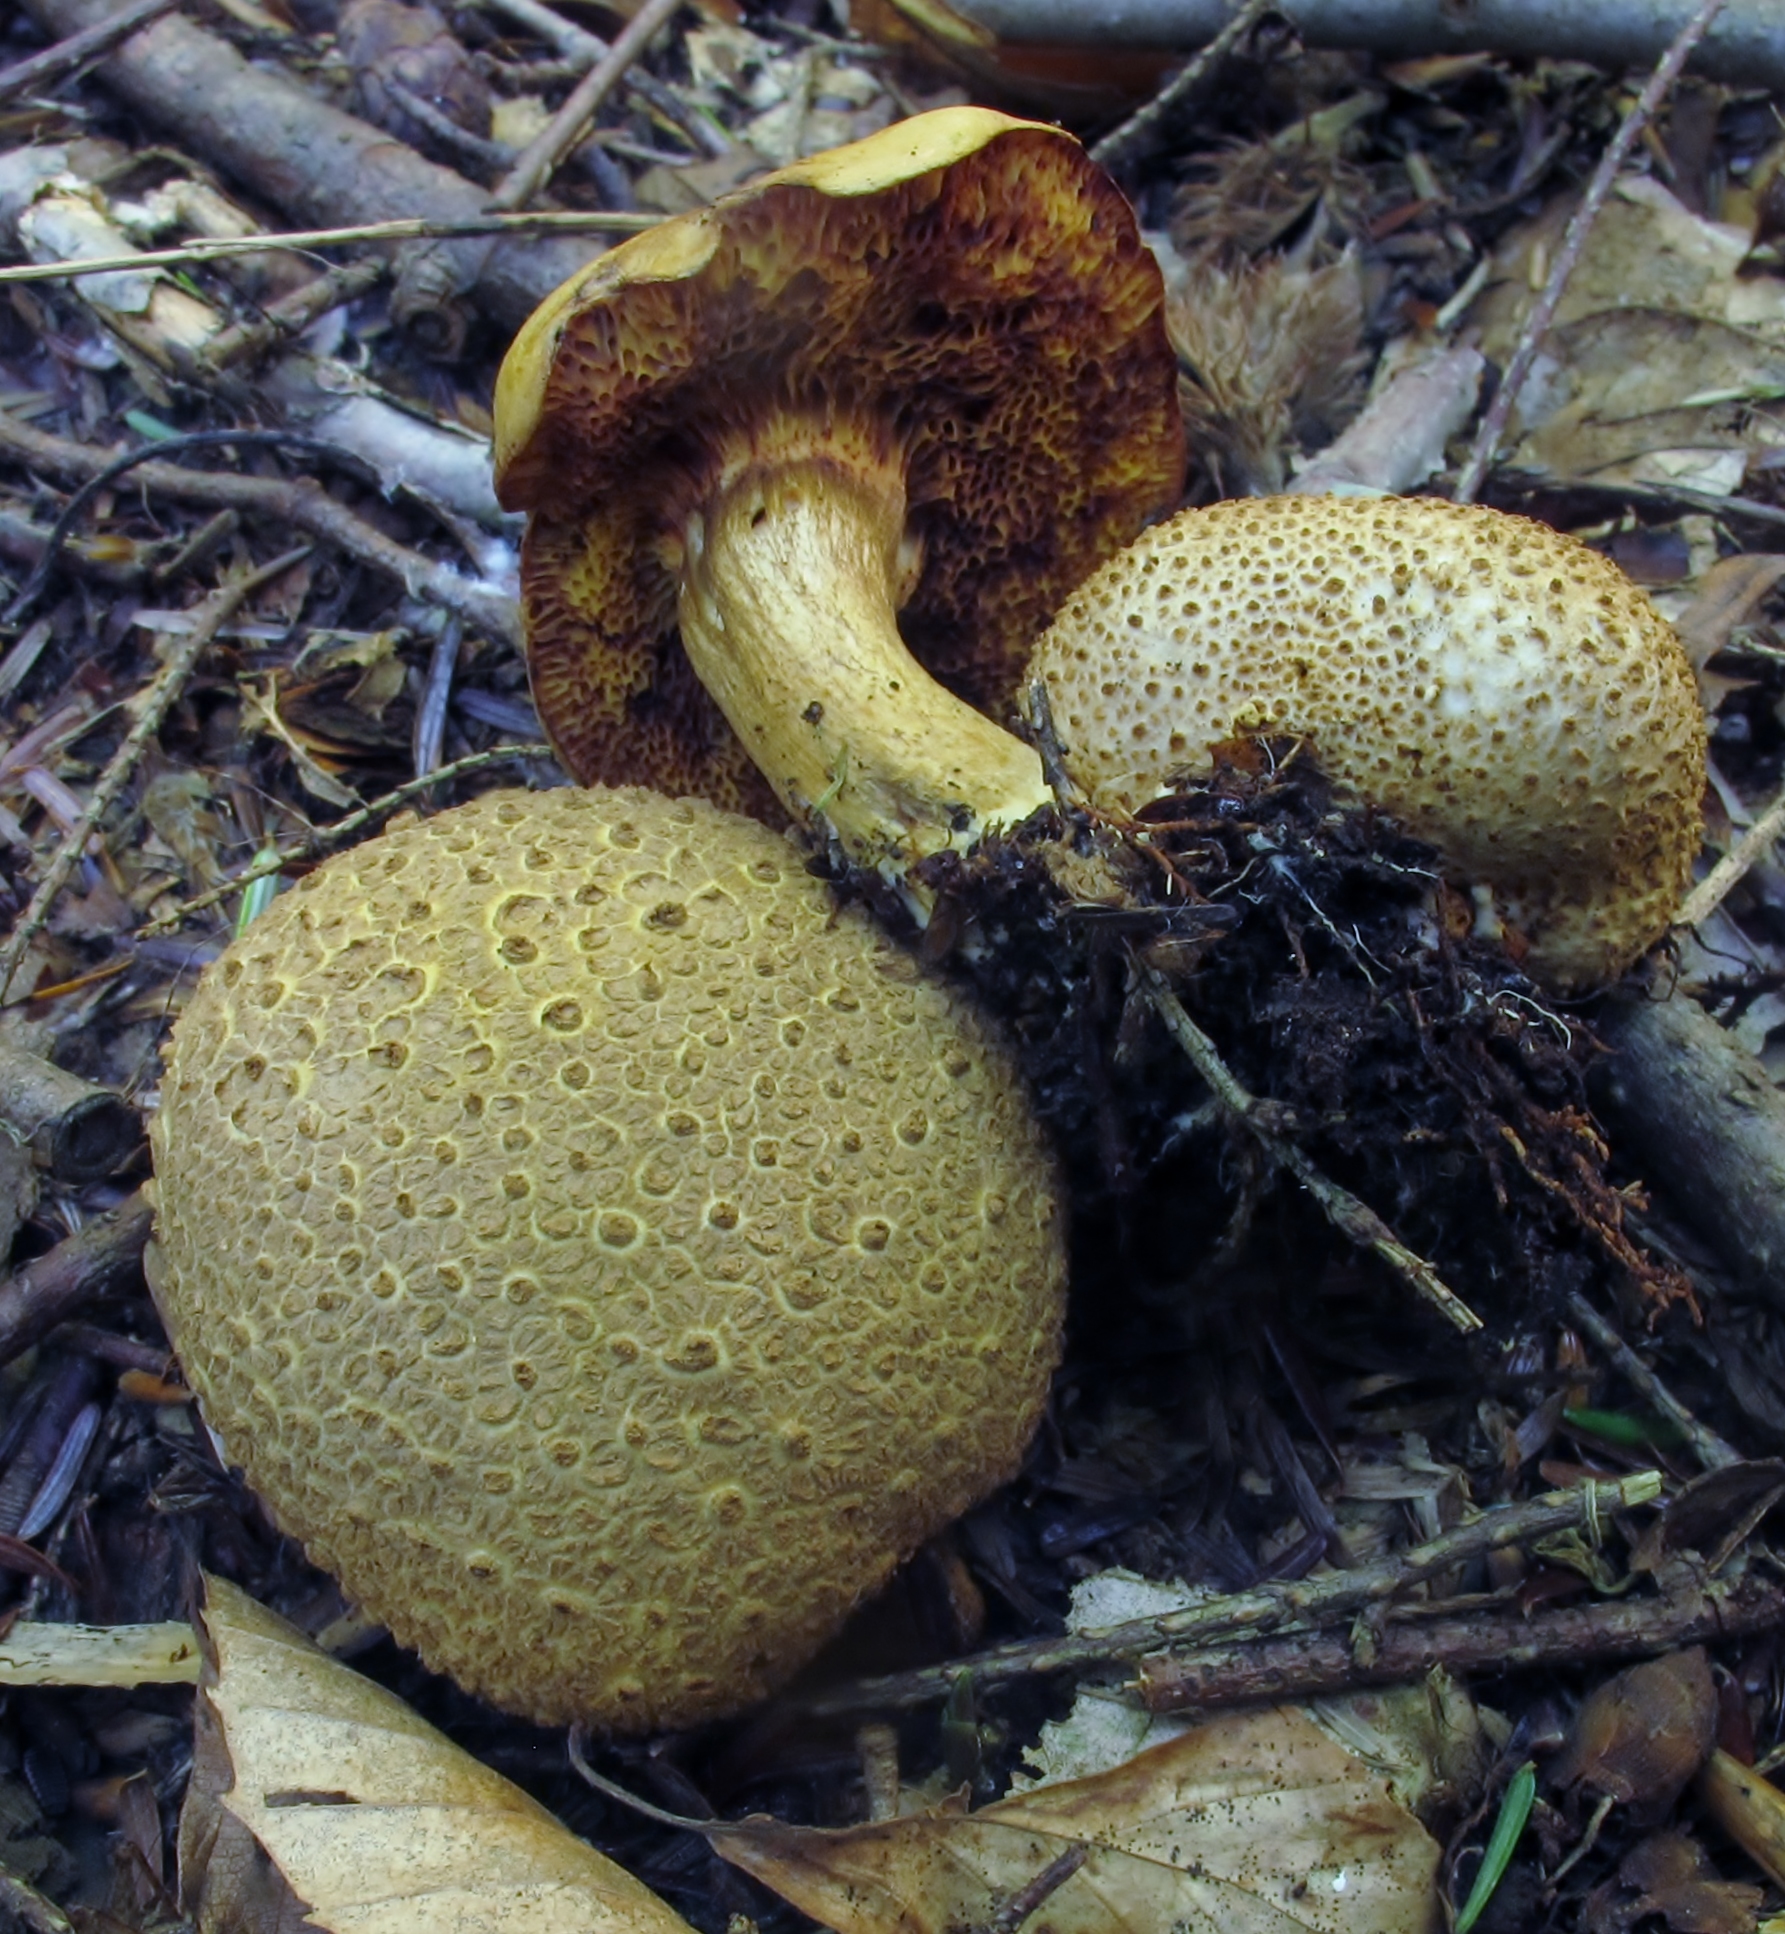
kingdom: Fungi
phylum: Basidiomycota
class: Agaricomycetes
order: Boletales
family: Boletaceae
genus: Pseudoboletus
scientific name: Pseudoboletus parasiticus
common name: Parasitic bolete
